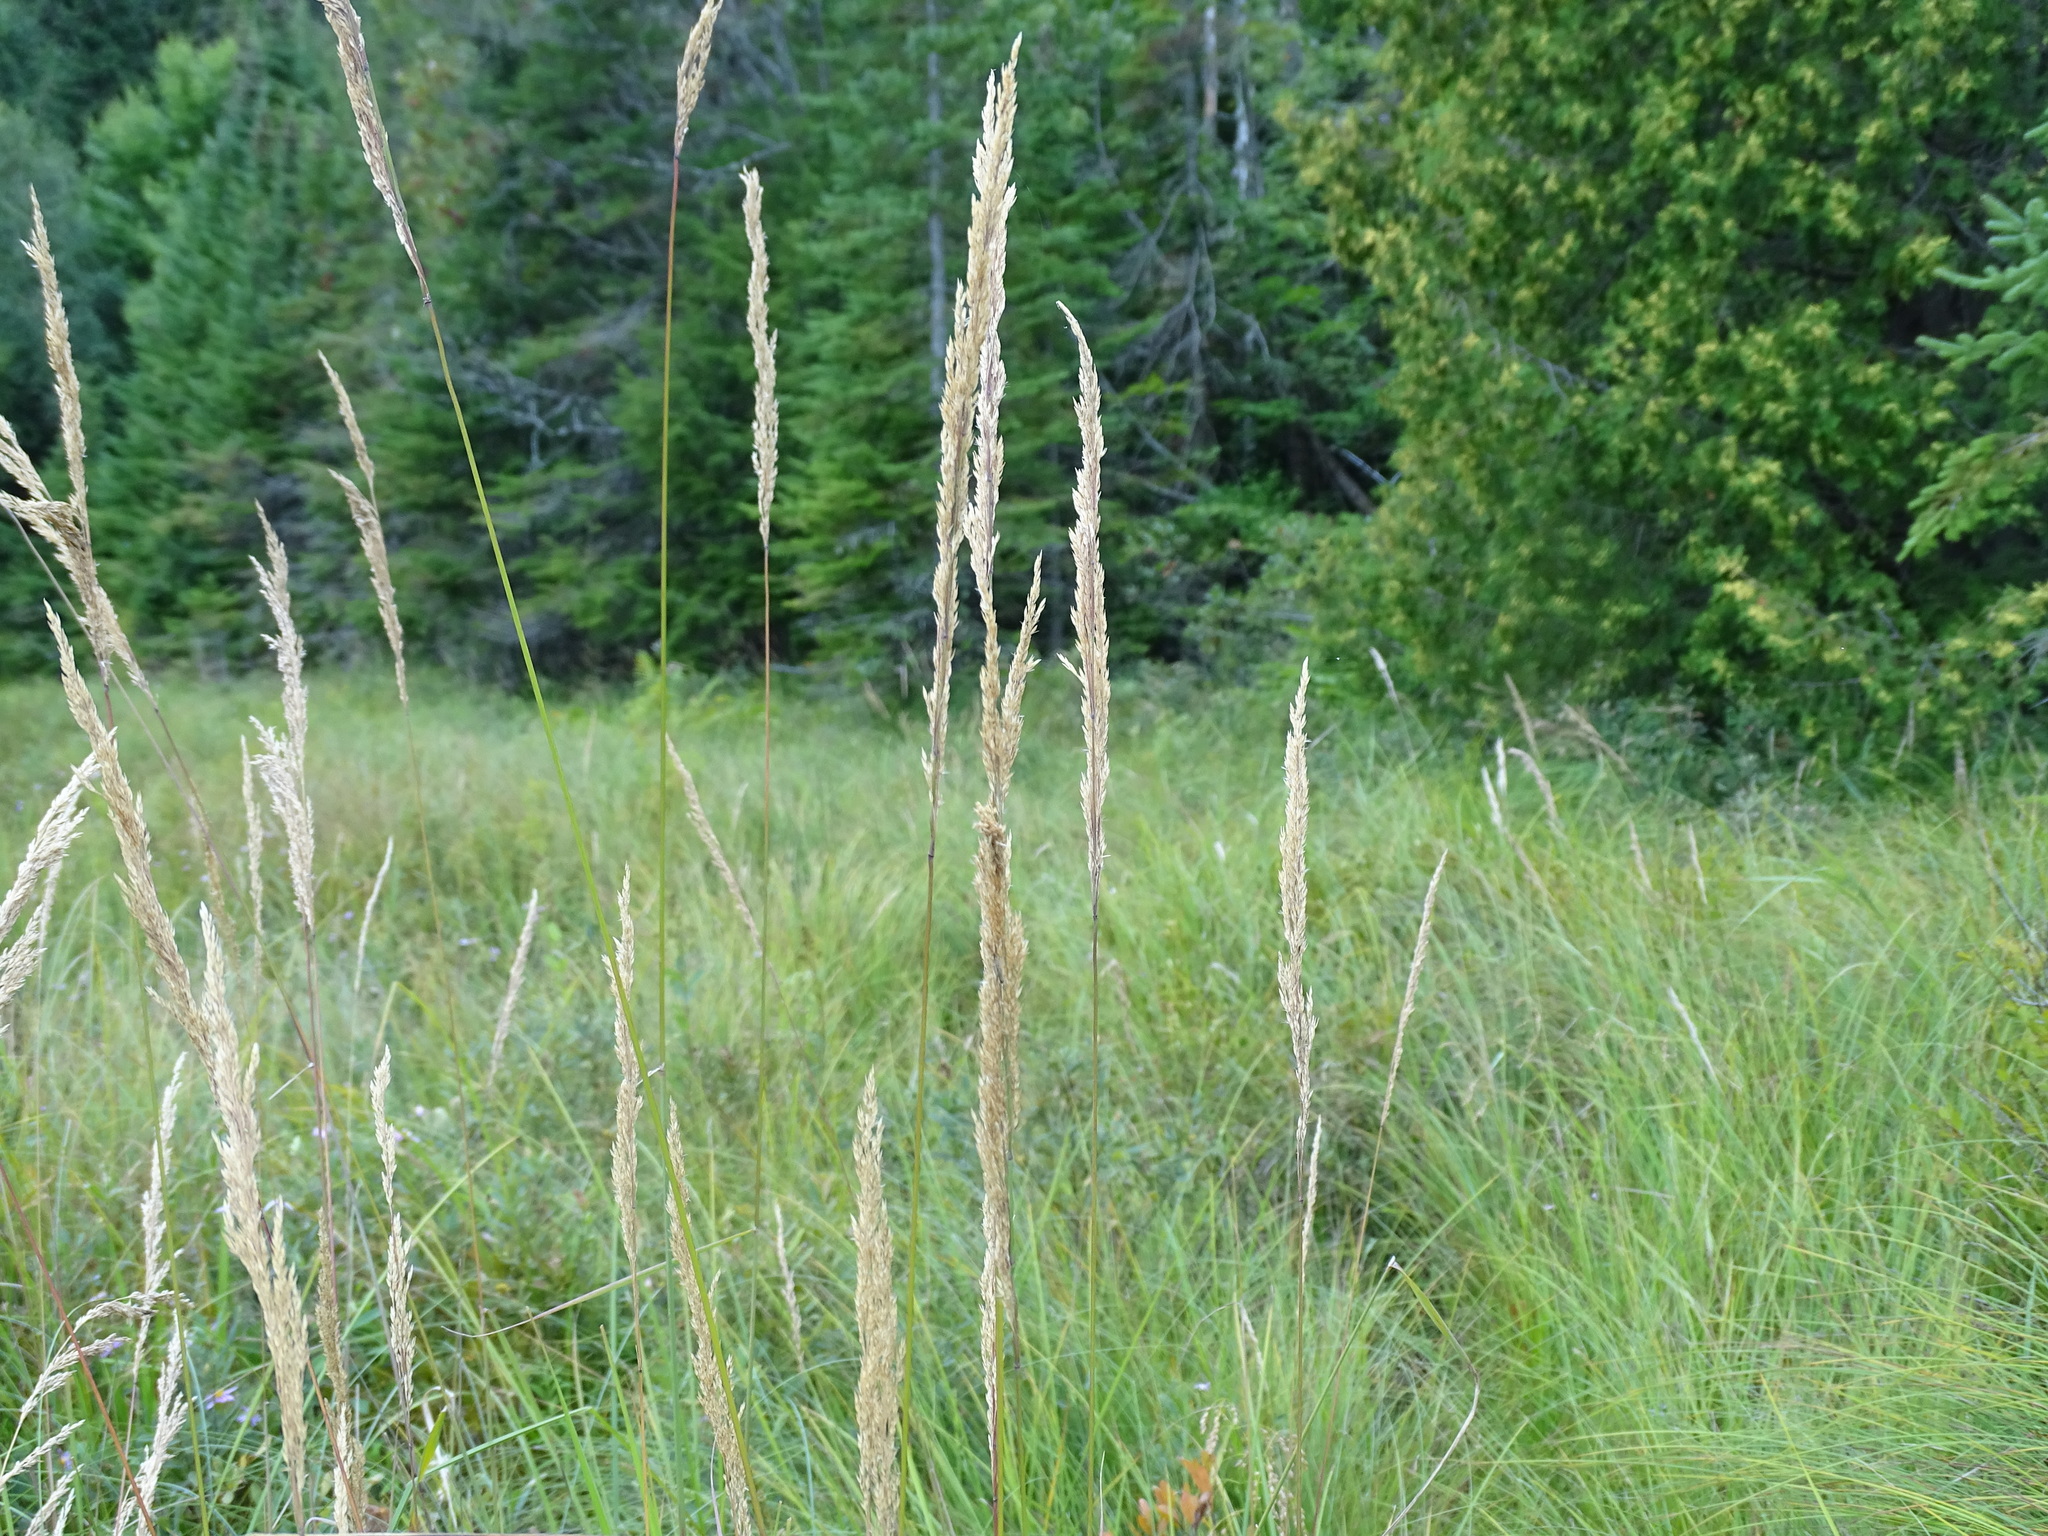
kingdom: Plantae
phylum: Tracheophyta
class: Liliopsida
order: Poales
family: Poaceae
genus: Calamagrostis
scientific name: Calamagrostis canadensis
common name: Canada bluejoint
